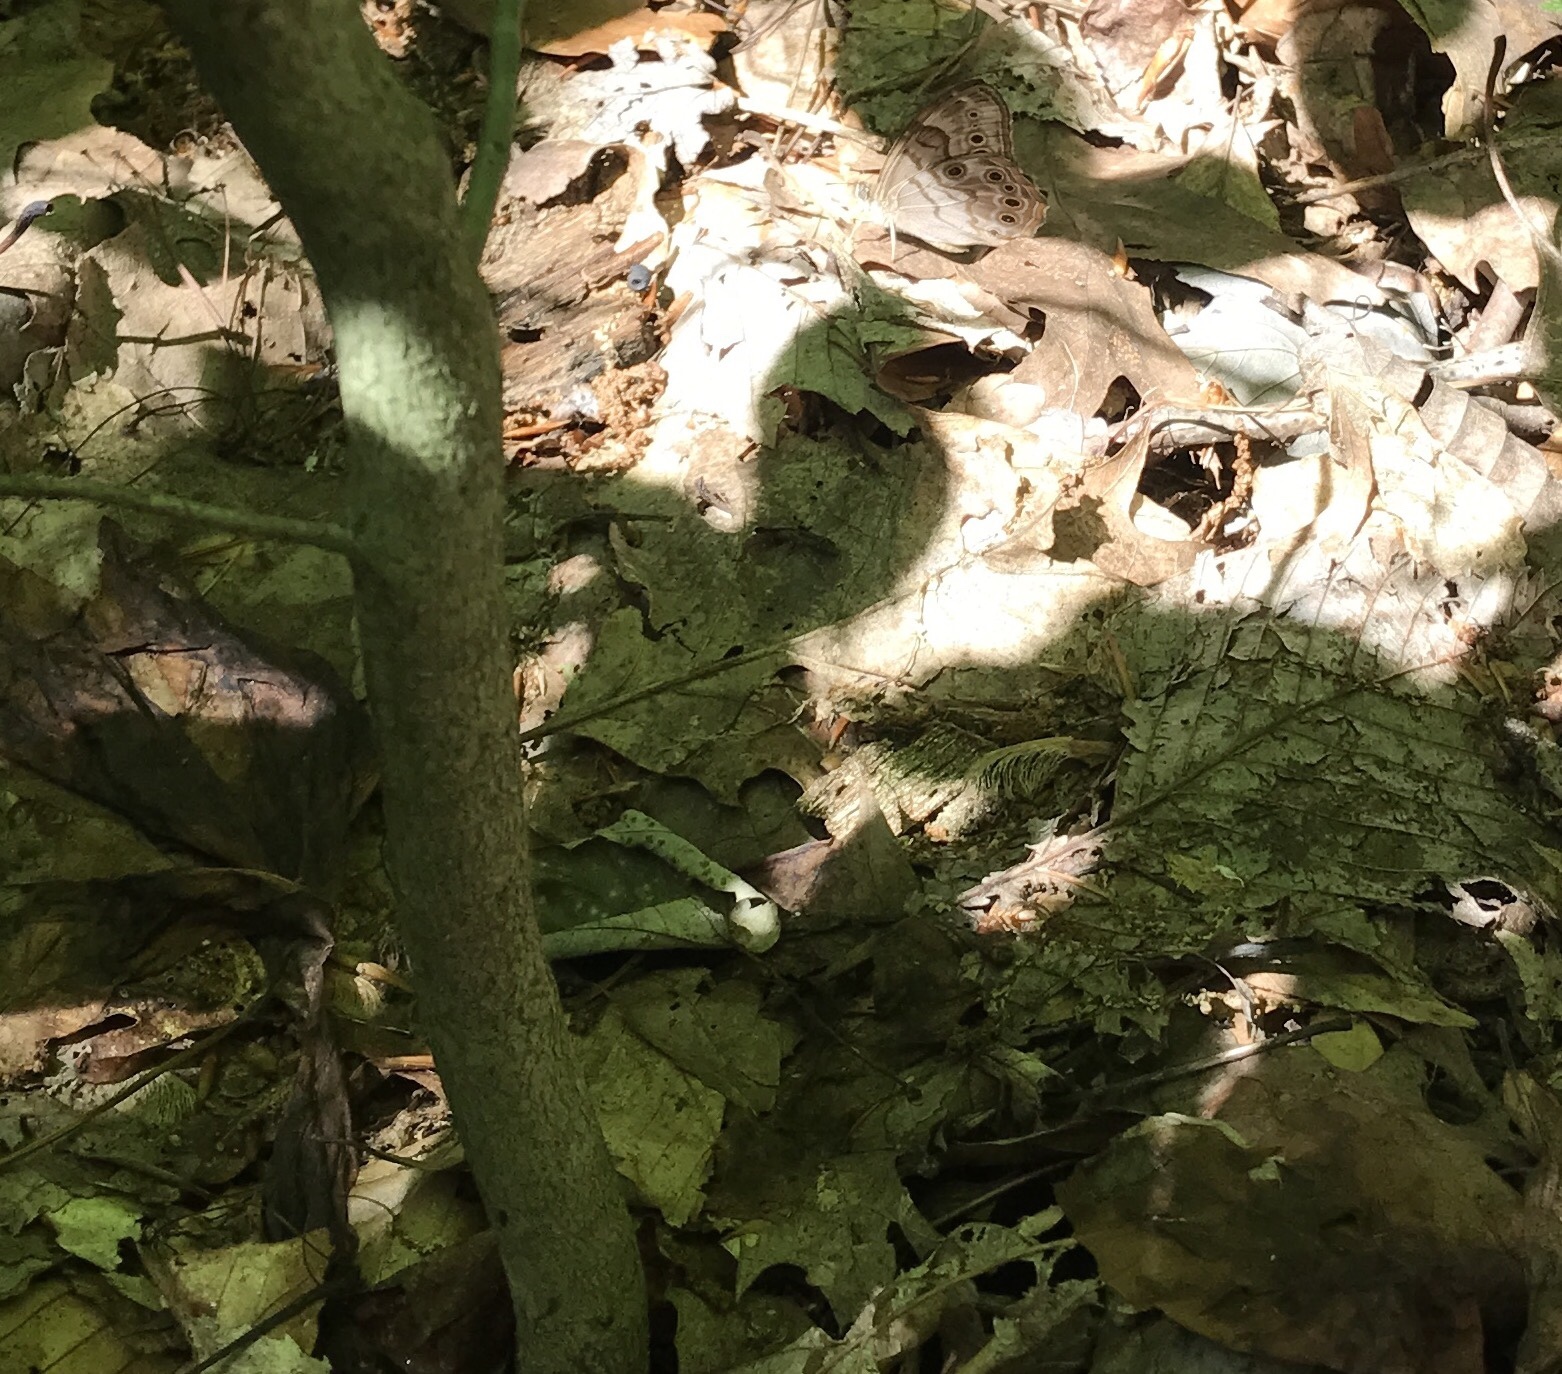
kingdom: Animalia
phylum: Arthropoda
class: Insecta
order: Lepidoptera
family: Nymphalidae
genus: Lethe
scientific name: Lethe anthedon
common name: Northern pearly-eye
